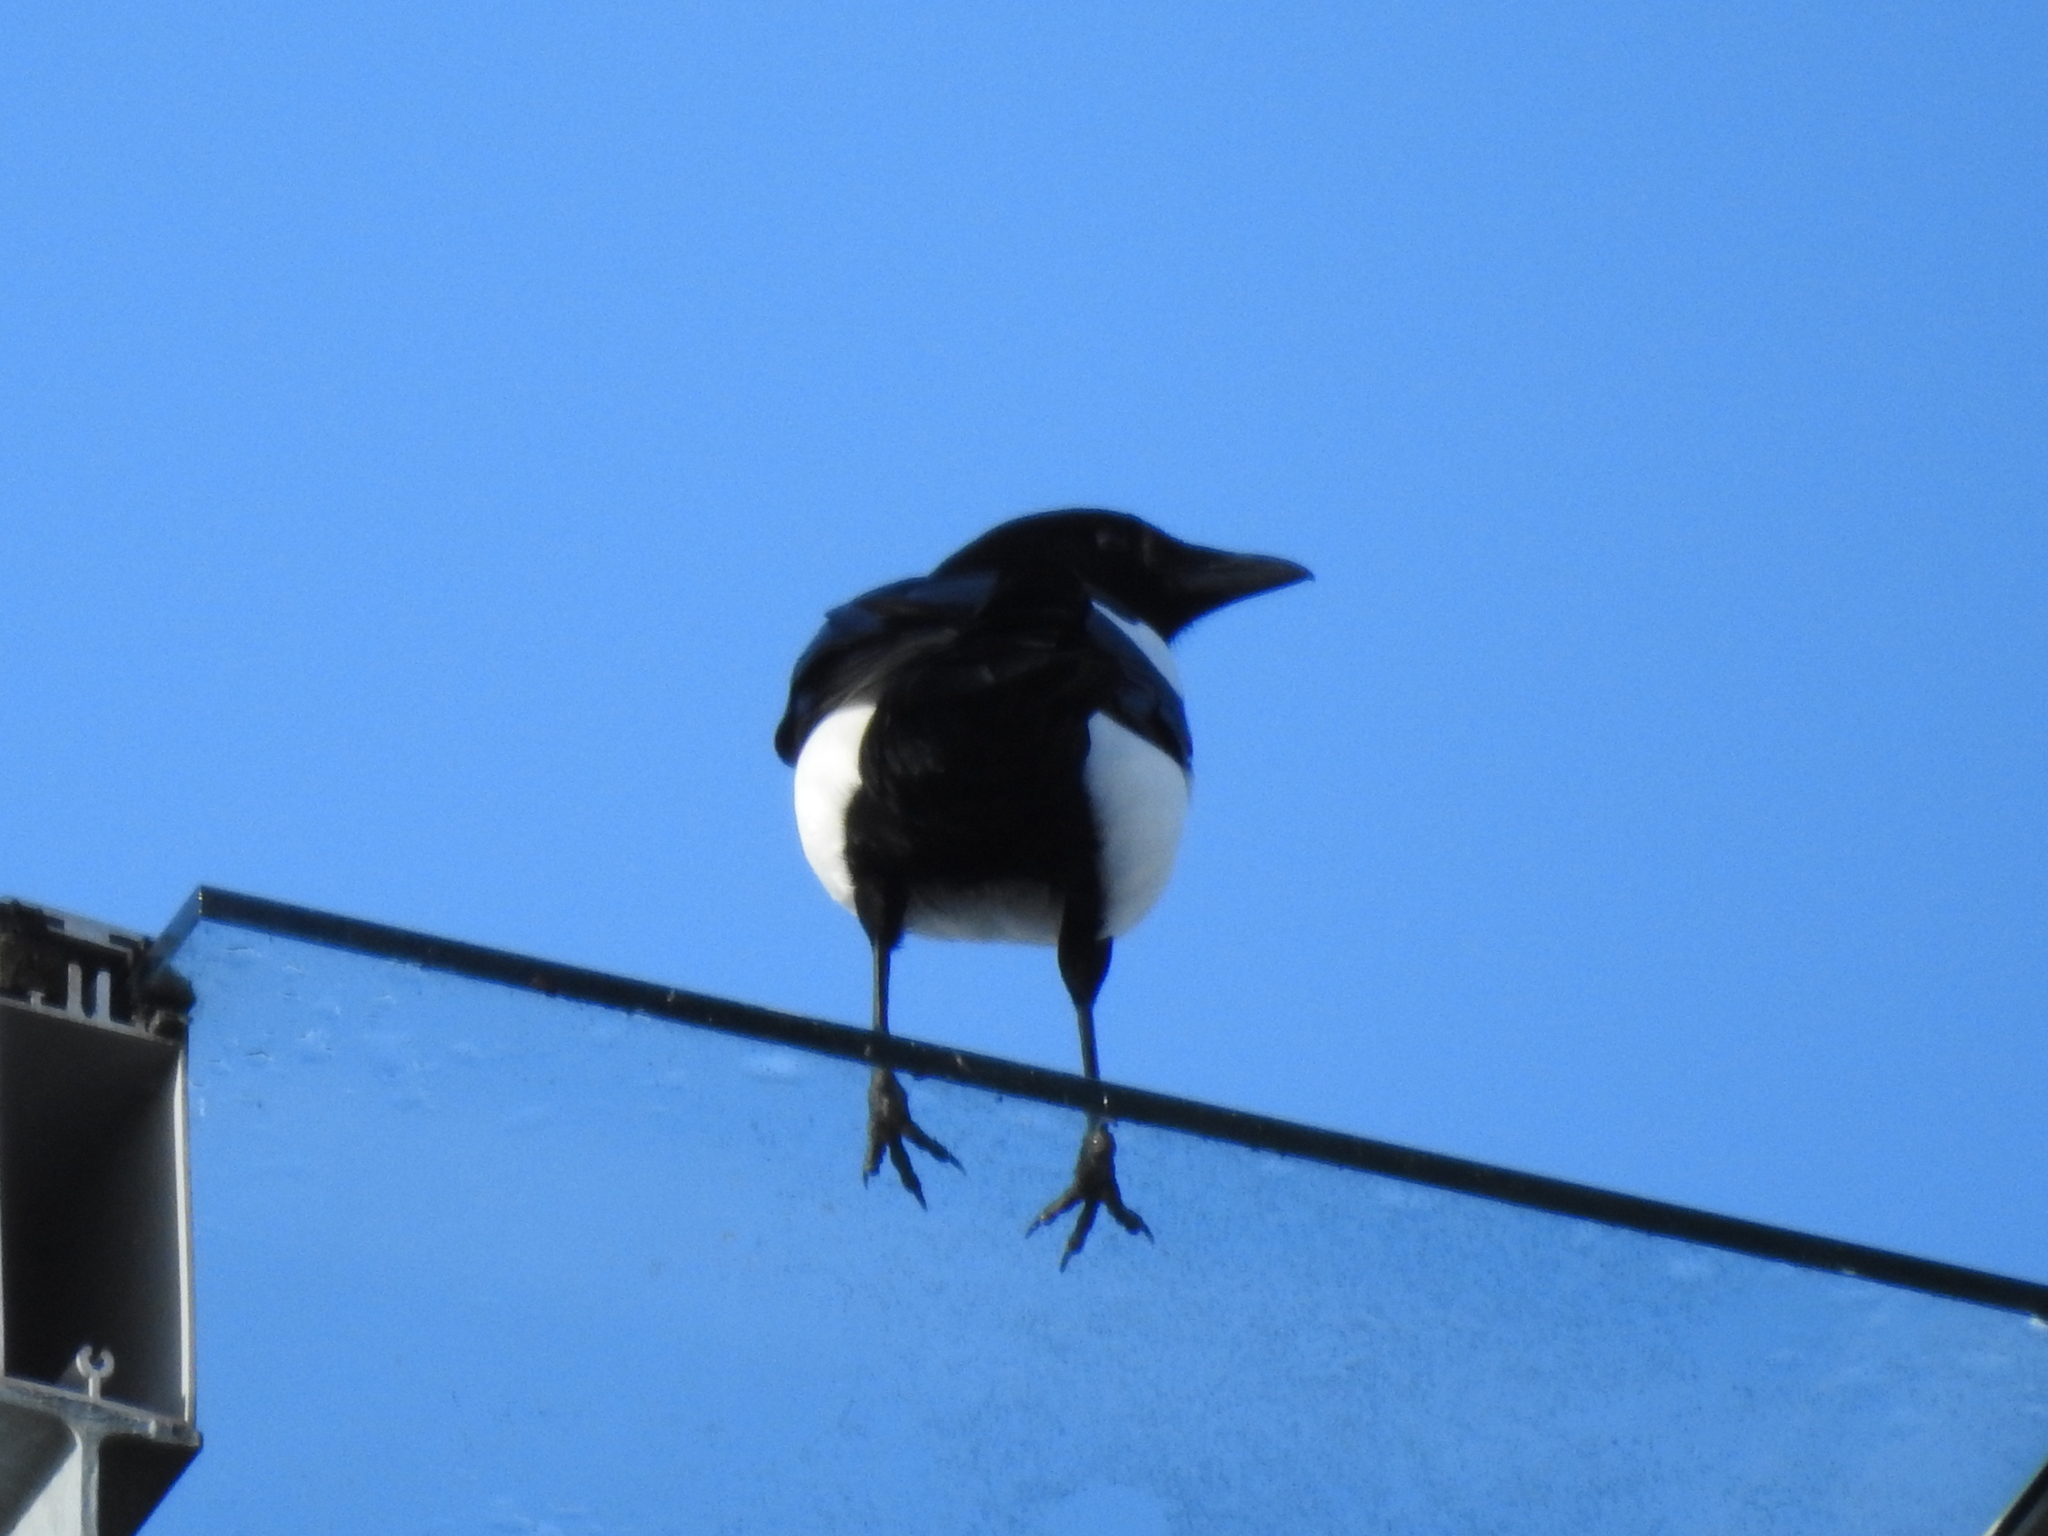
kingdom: Animalia
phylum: Chordata
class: Aves
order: Passeriformes
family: Corvidae
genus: Pica
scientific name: Pica pica
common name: Eurasian magpie
